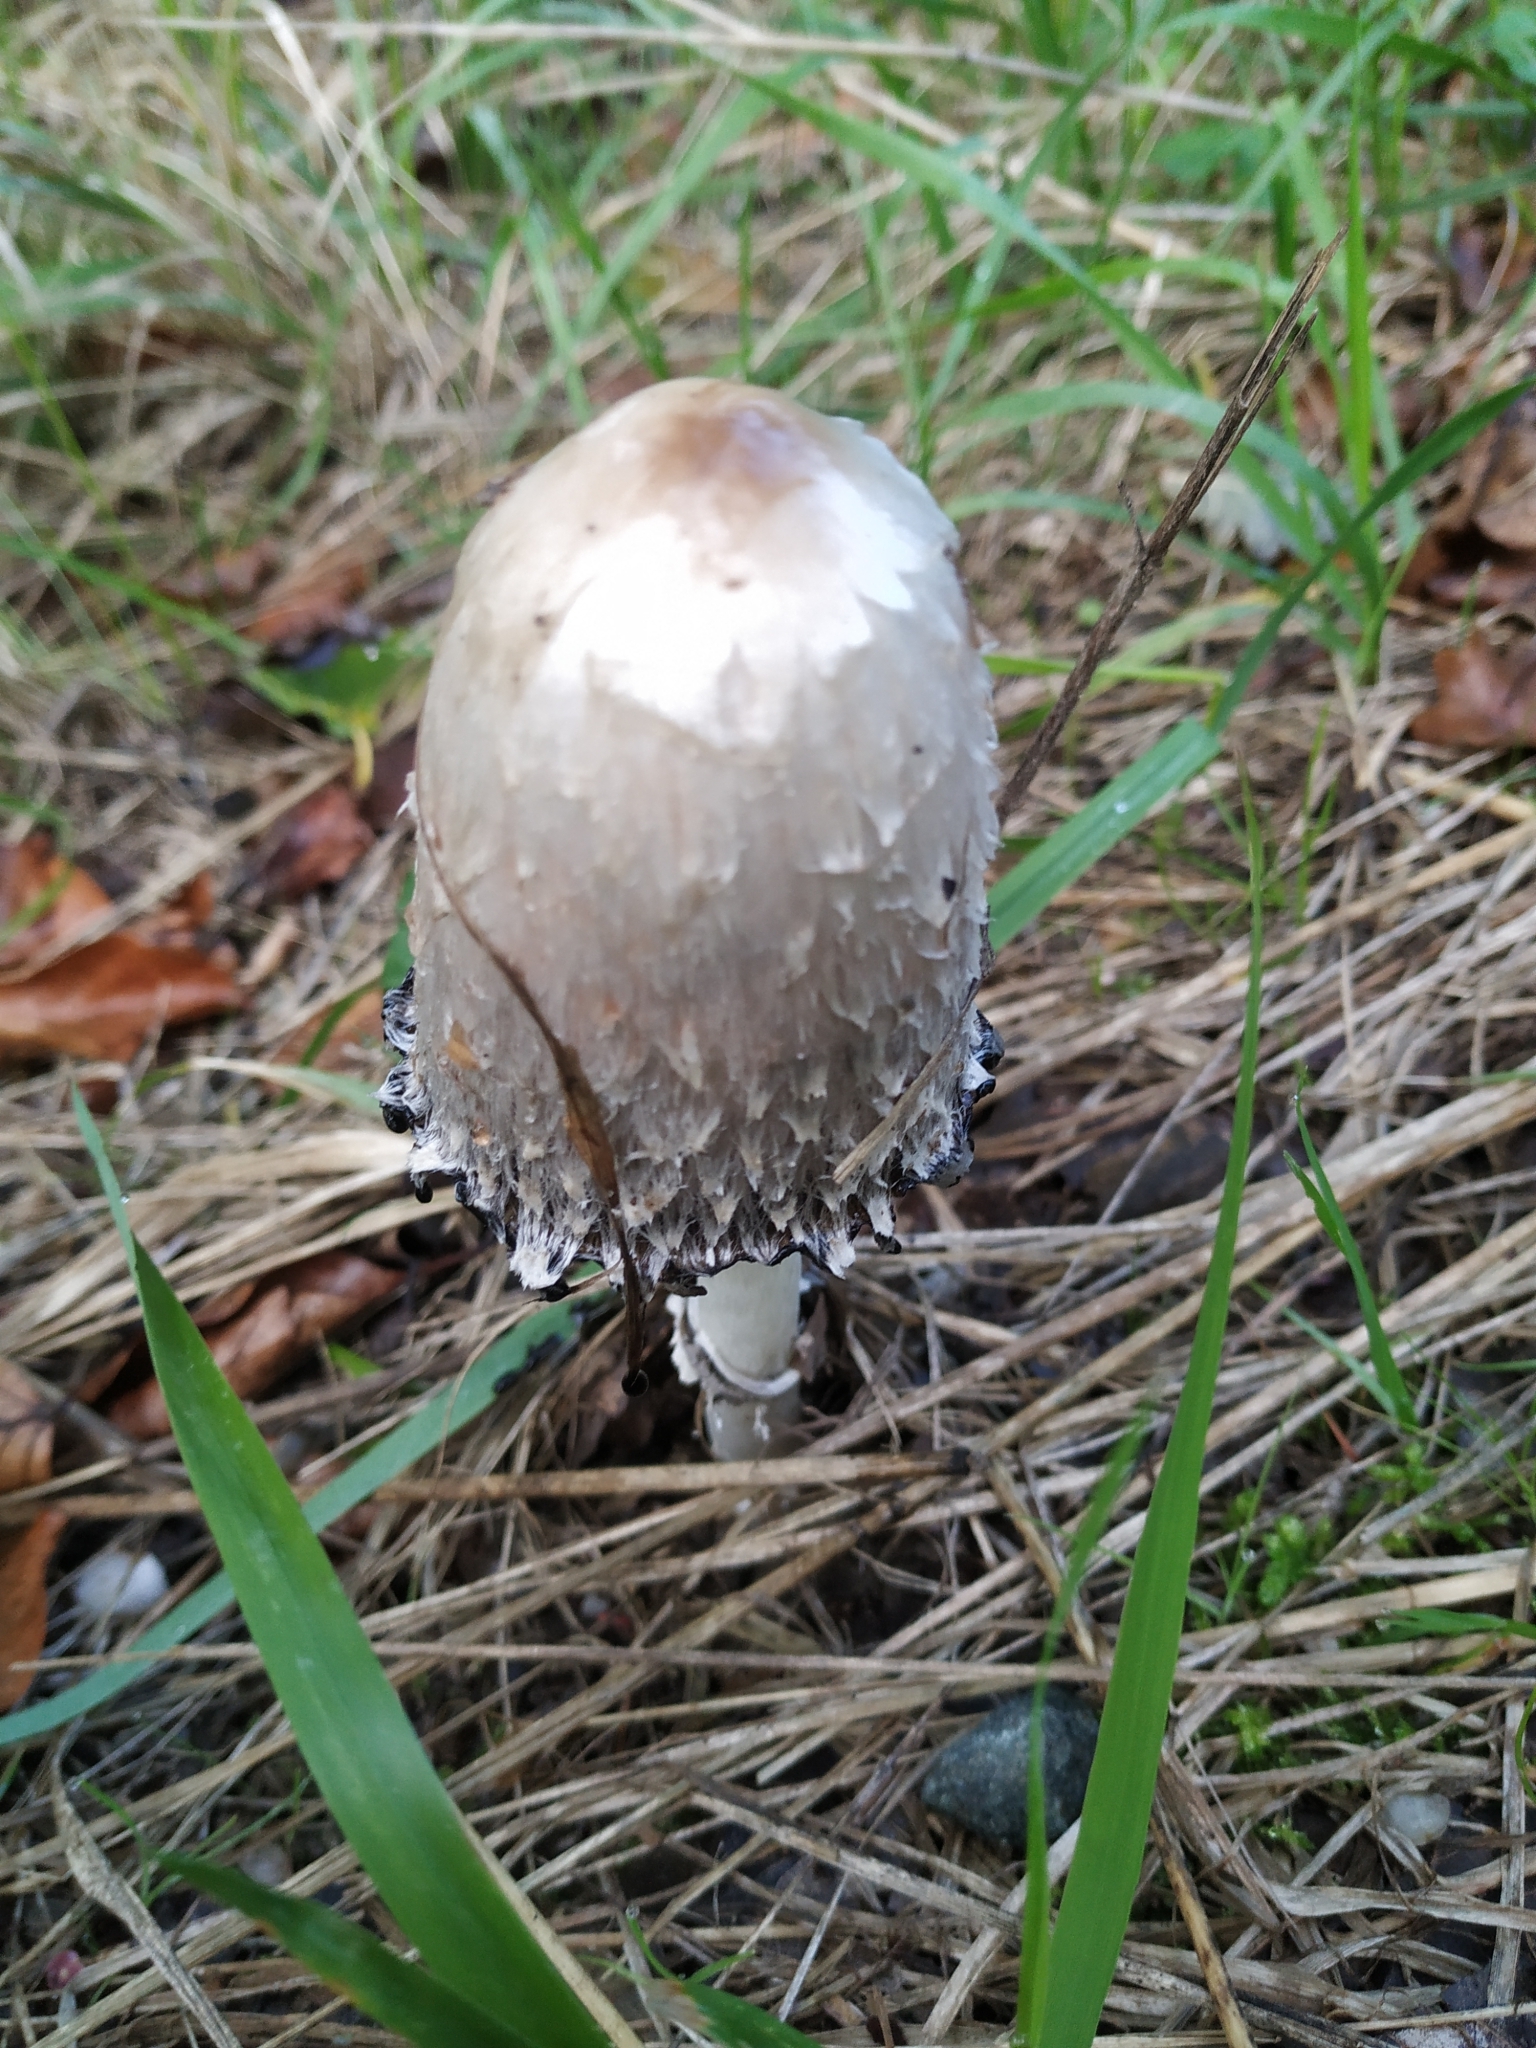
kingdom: Fungi
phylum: Basidiomycota
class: Agaricomycetes
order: Agaricales
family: Agaricaceae
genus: Coprinus
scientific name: Coprinus comatus
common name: Lawyer's wig
